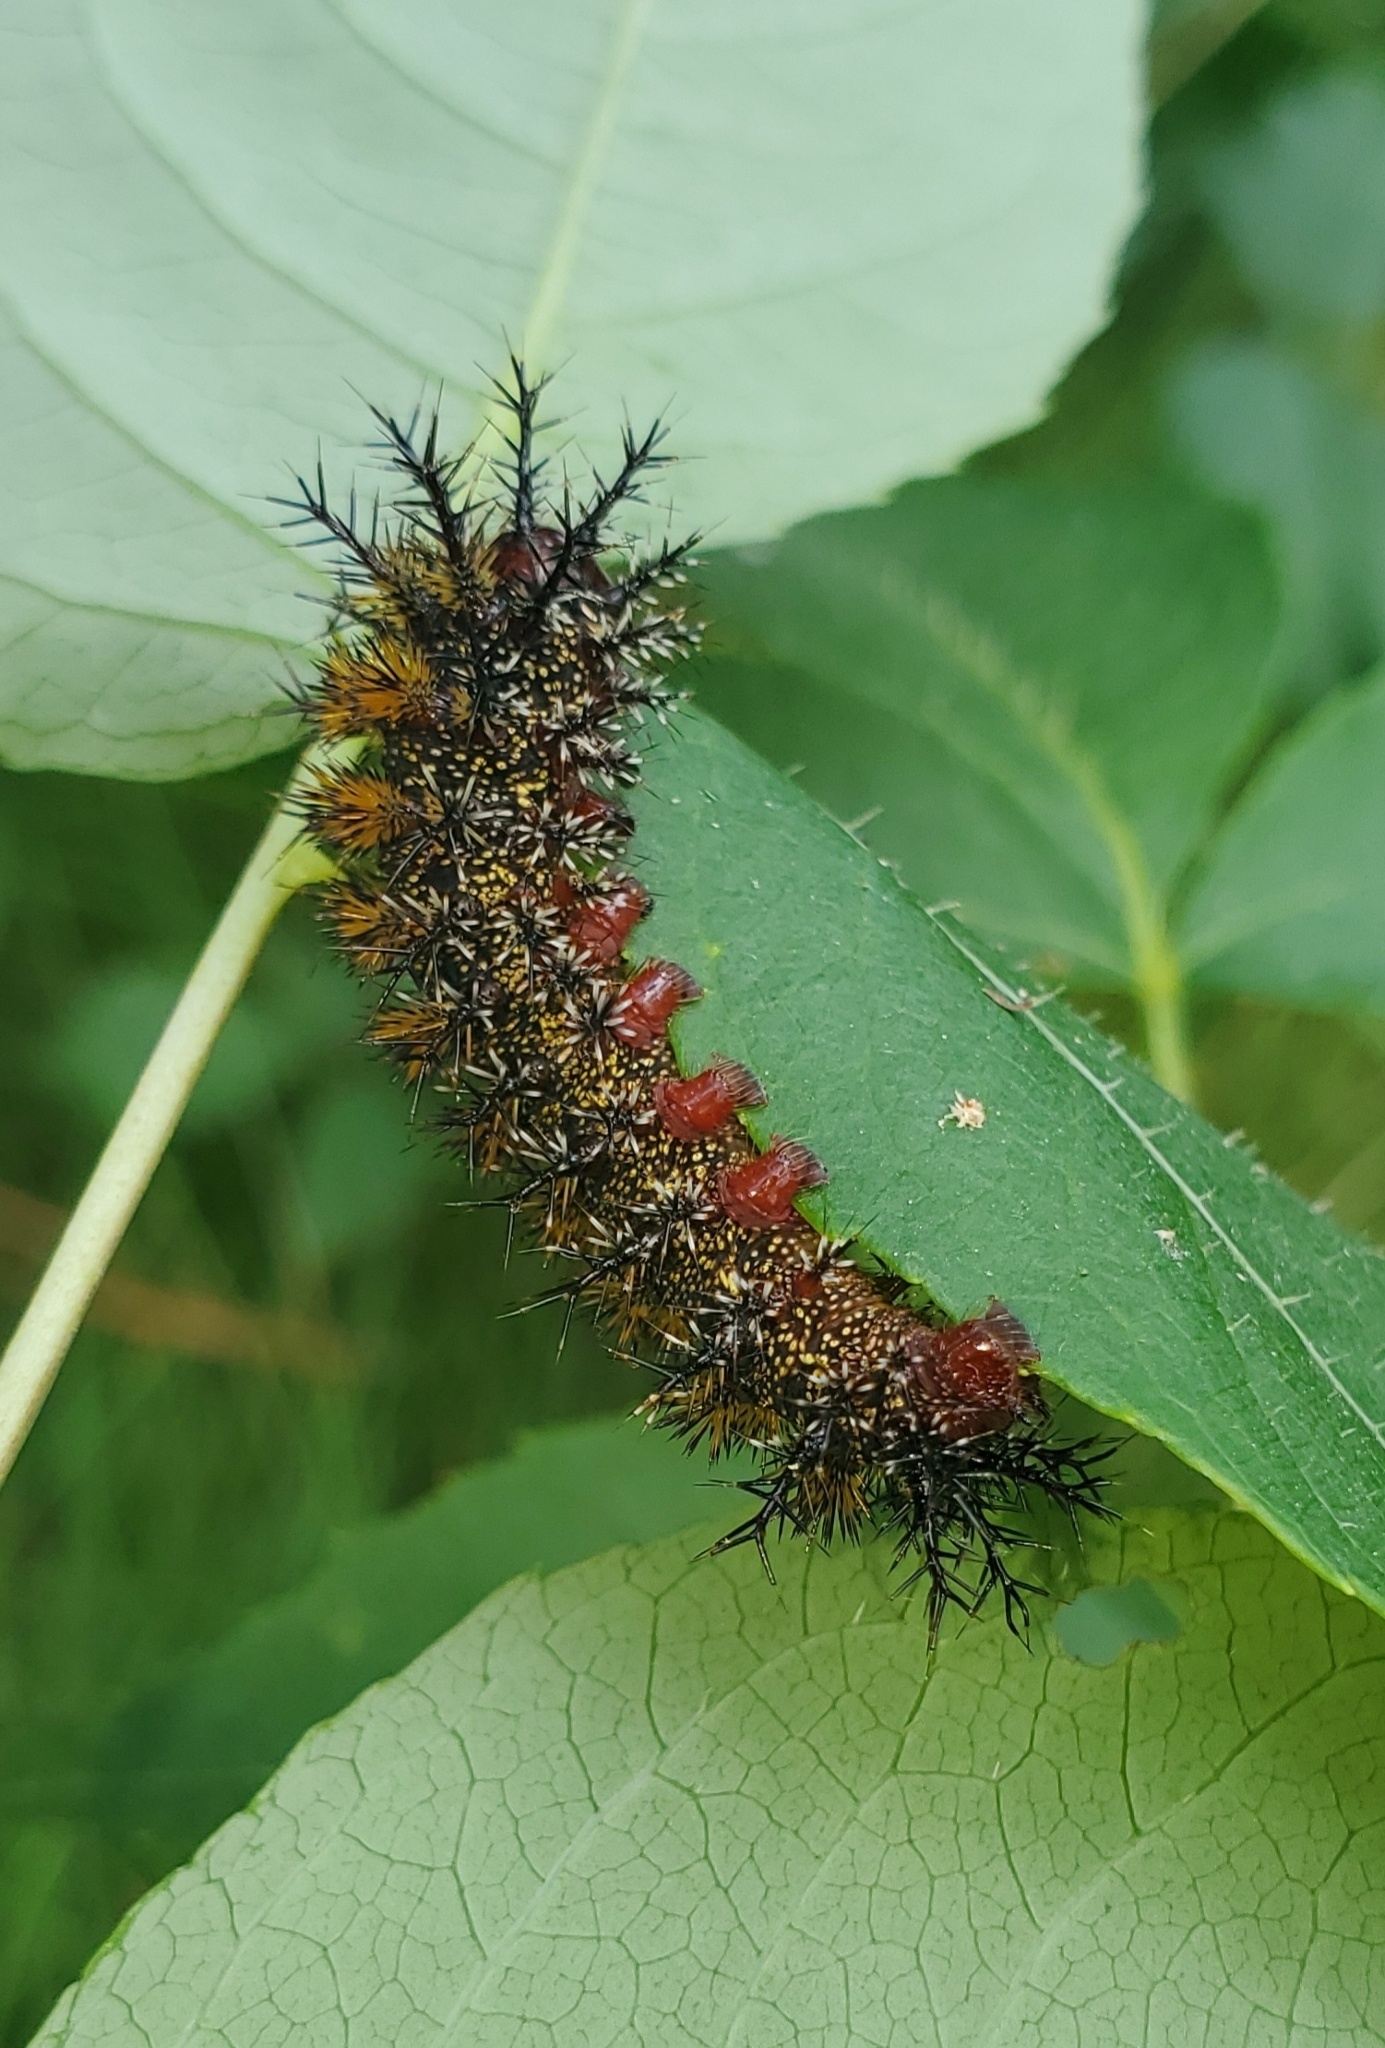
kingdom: Animalia
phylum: Arthropoda
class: Insecta
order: Lepidoptera
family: Saturniidae
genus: Hemileuca
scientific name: Hemileuca maia
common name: Eastern buckmoth
